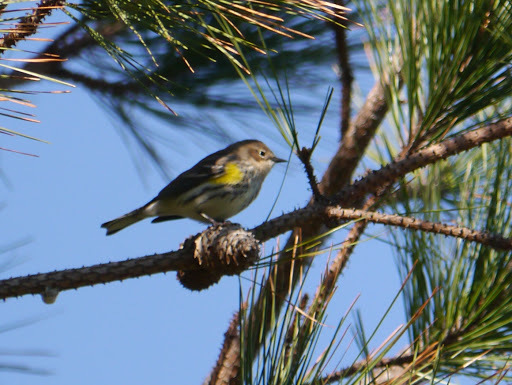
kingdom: Animalia
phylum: Chordata
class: Aves
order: Passeriformes
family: Parulidae
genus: Setophaga
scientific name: Setophaga coronata
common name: Myrtle warbler
